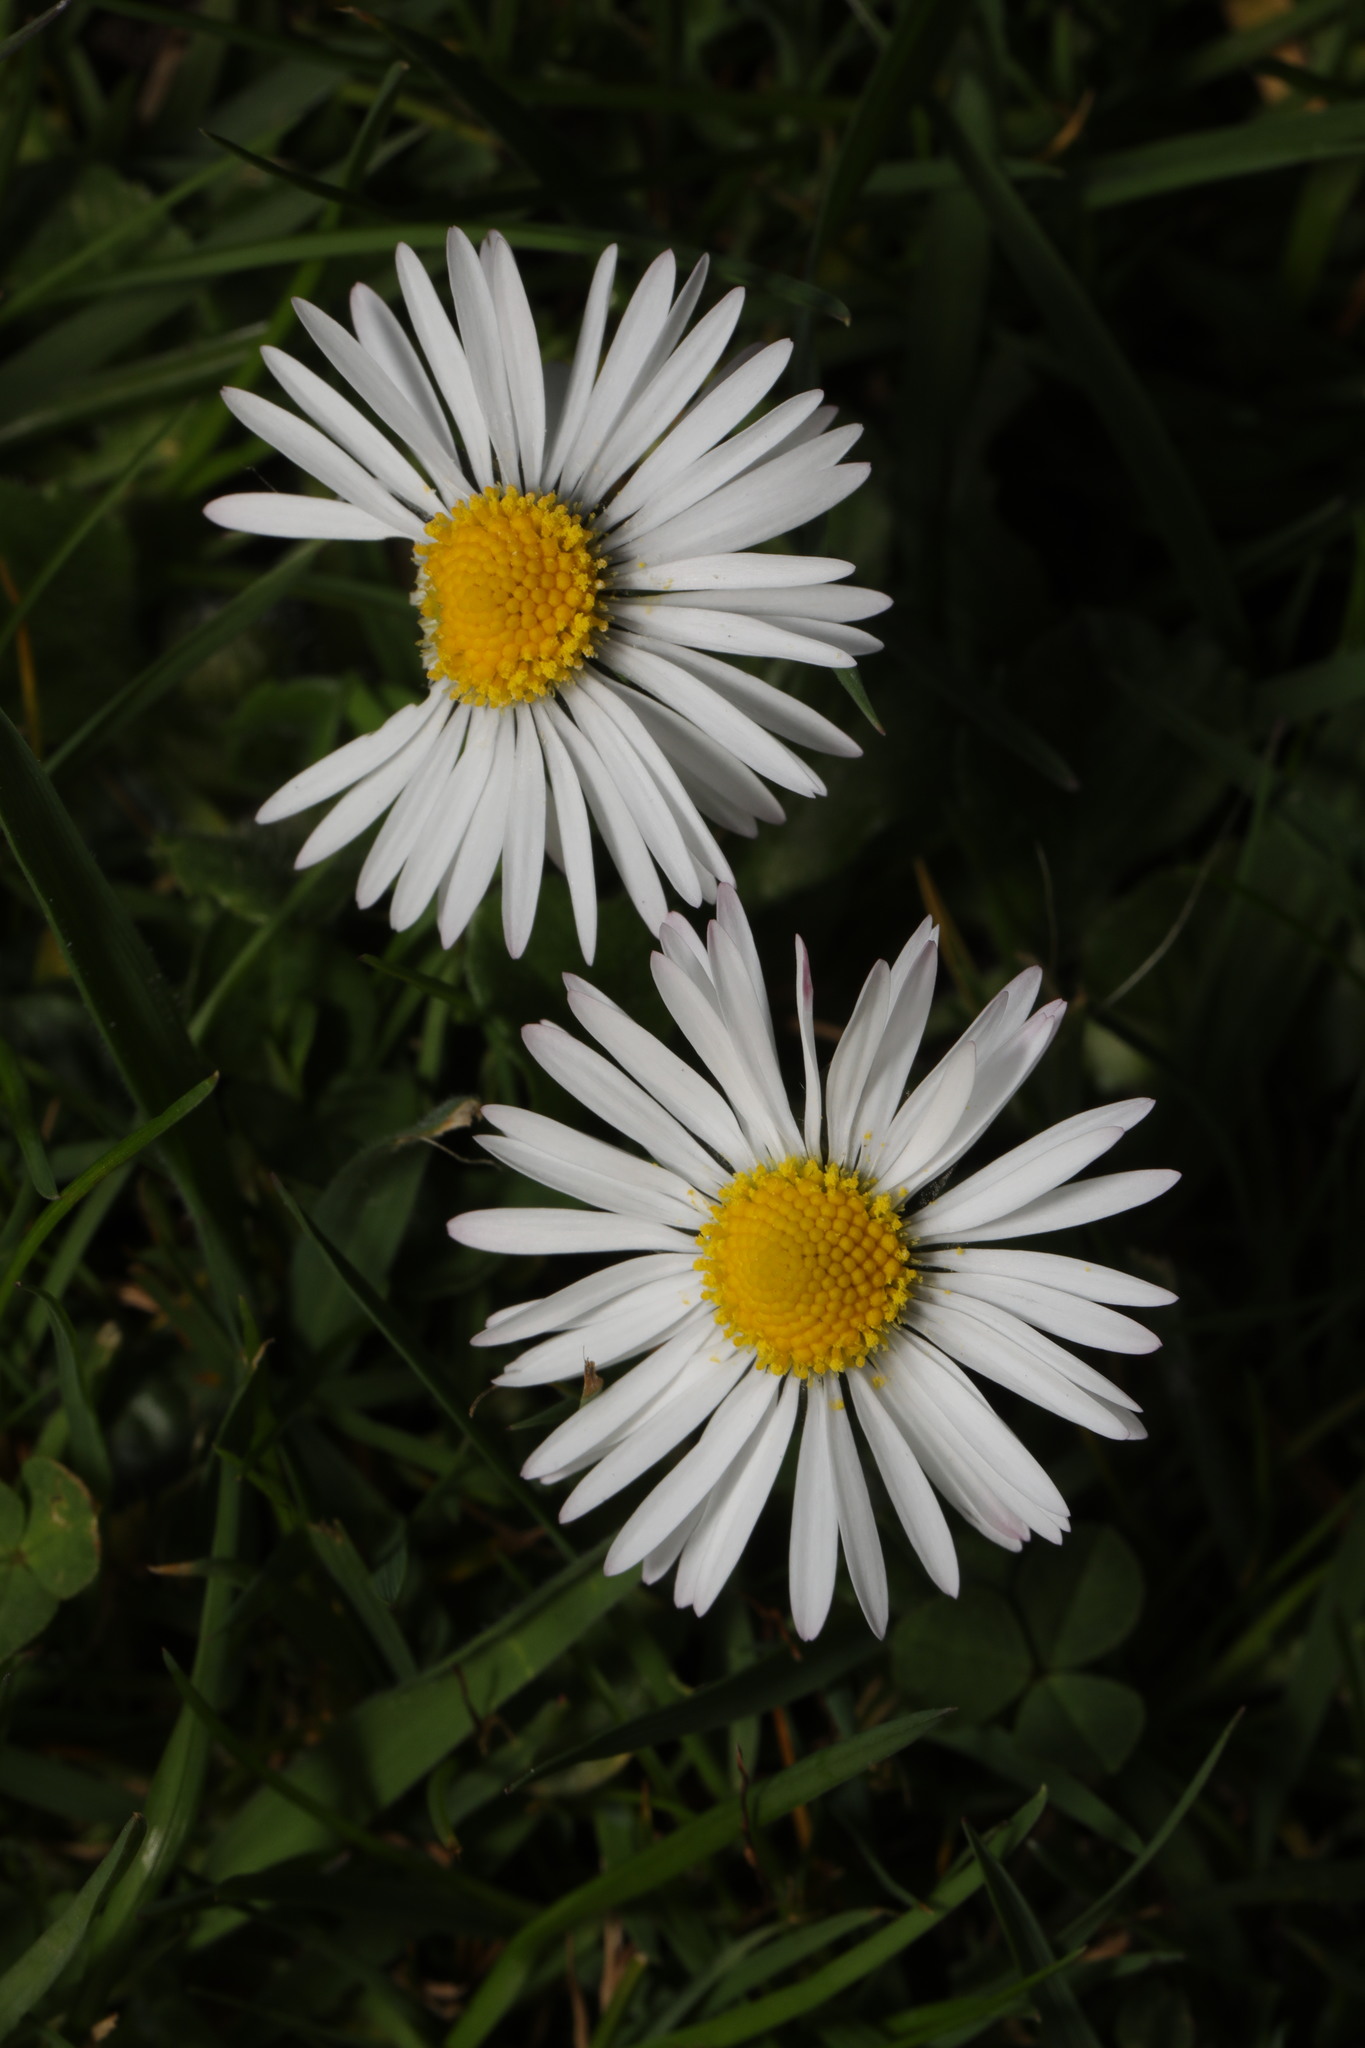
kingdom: Plantae
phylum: Tracheophyta
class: Magnoliopsida
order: Asterales
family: Asteraceae
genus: Bellis
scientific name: Bellis perennis
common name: Lawndaisy
